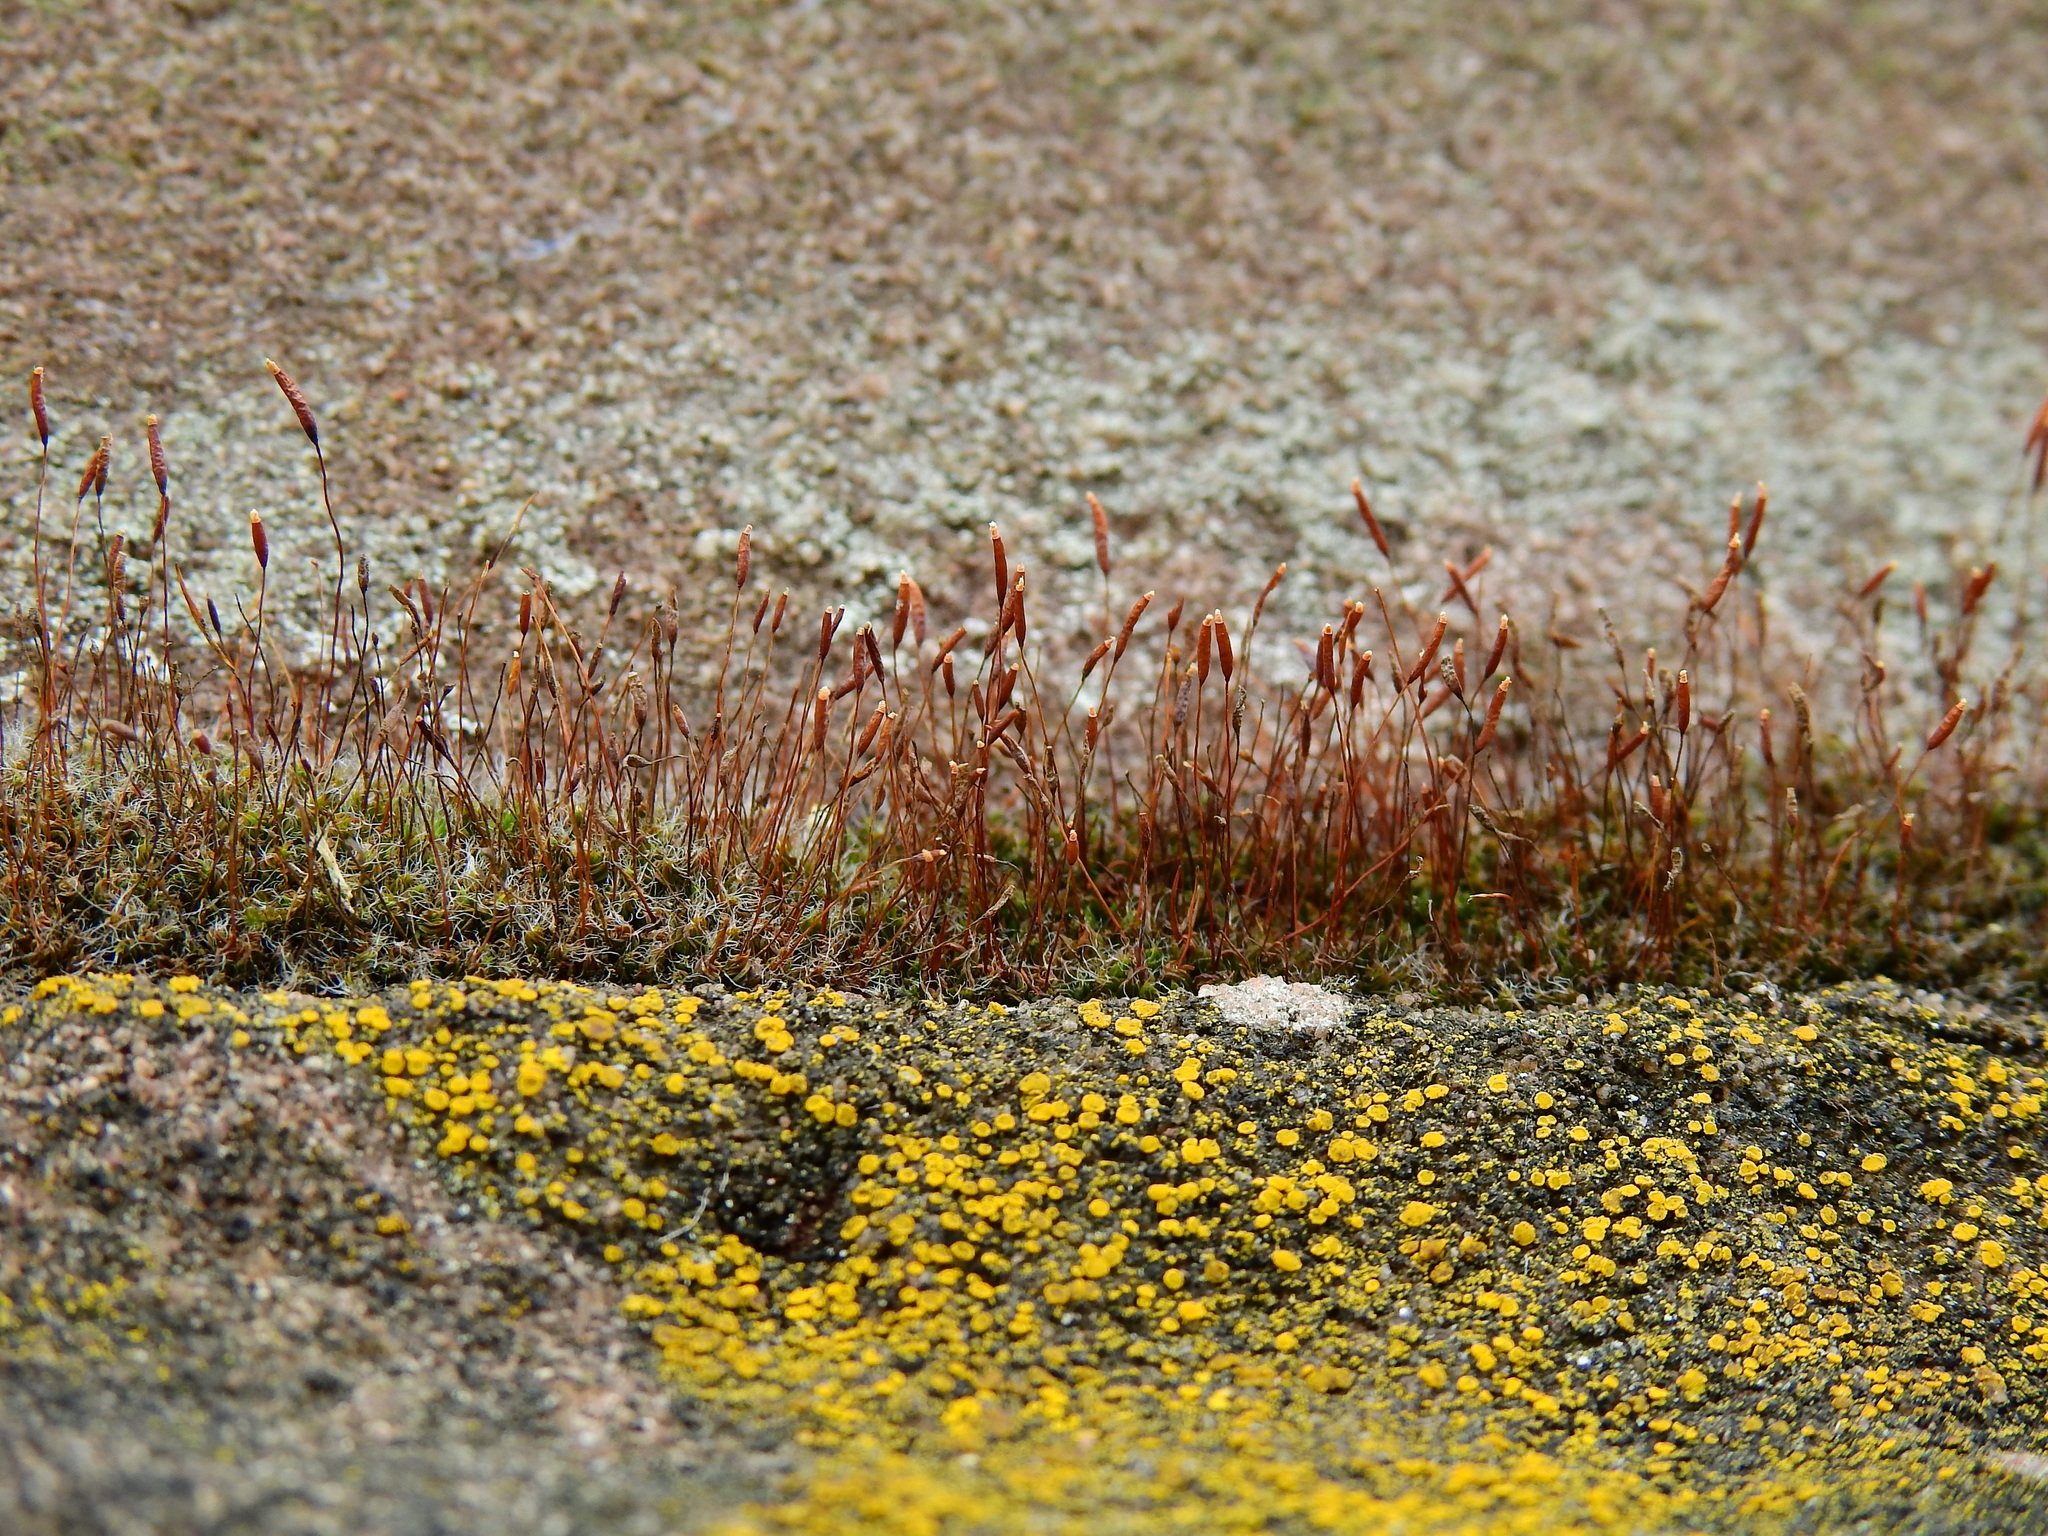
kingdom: Plantae
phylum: Bryophyta
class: Bryopsida
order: Pottiales
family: Pottiaceae
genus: Tortula
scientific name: Tortula muralis
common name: Wall screw-moss
